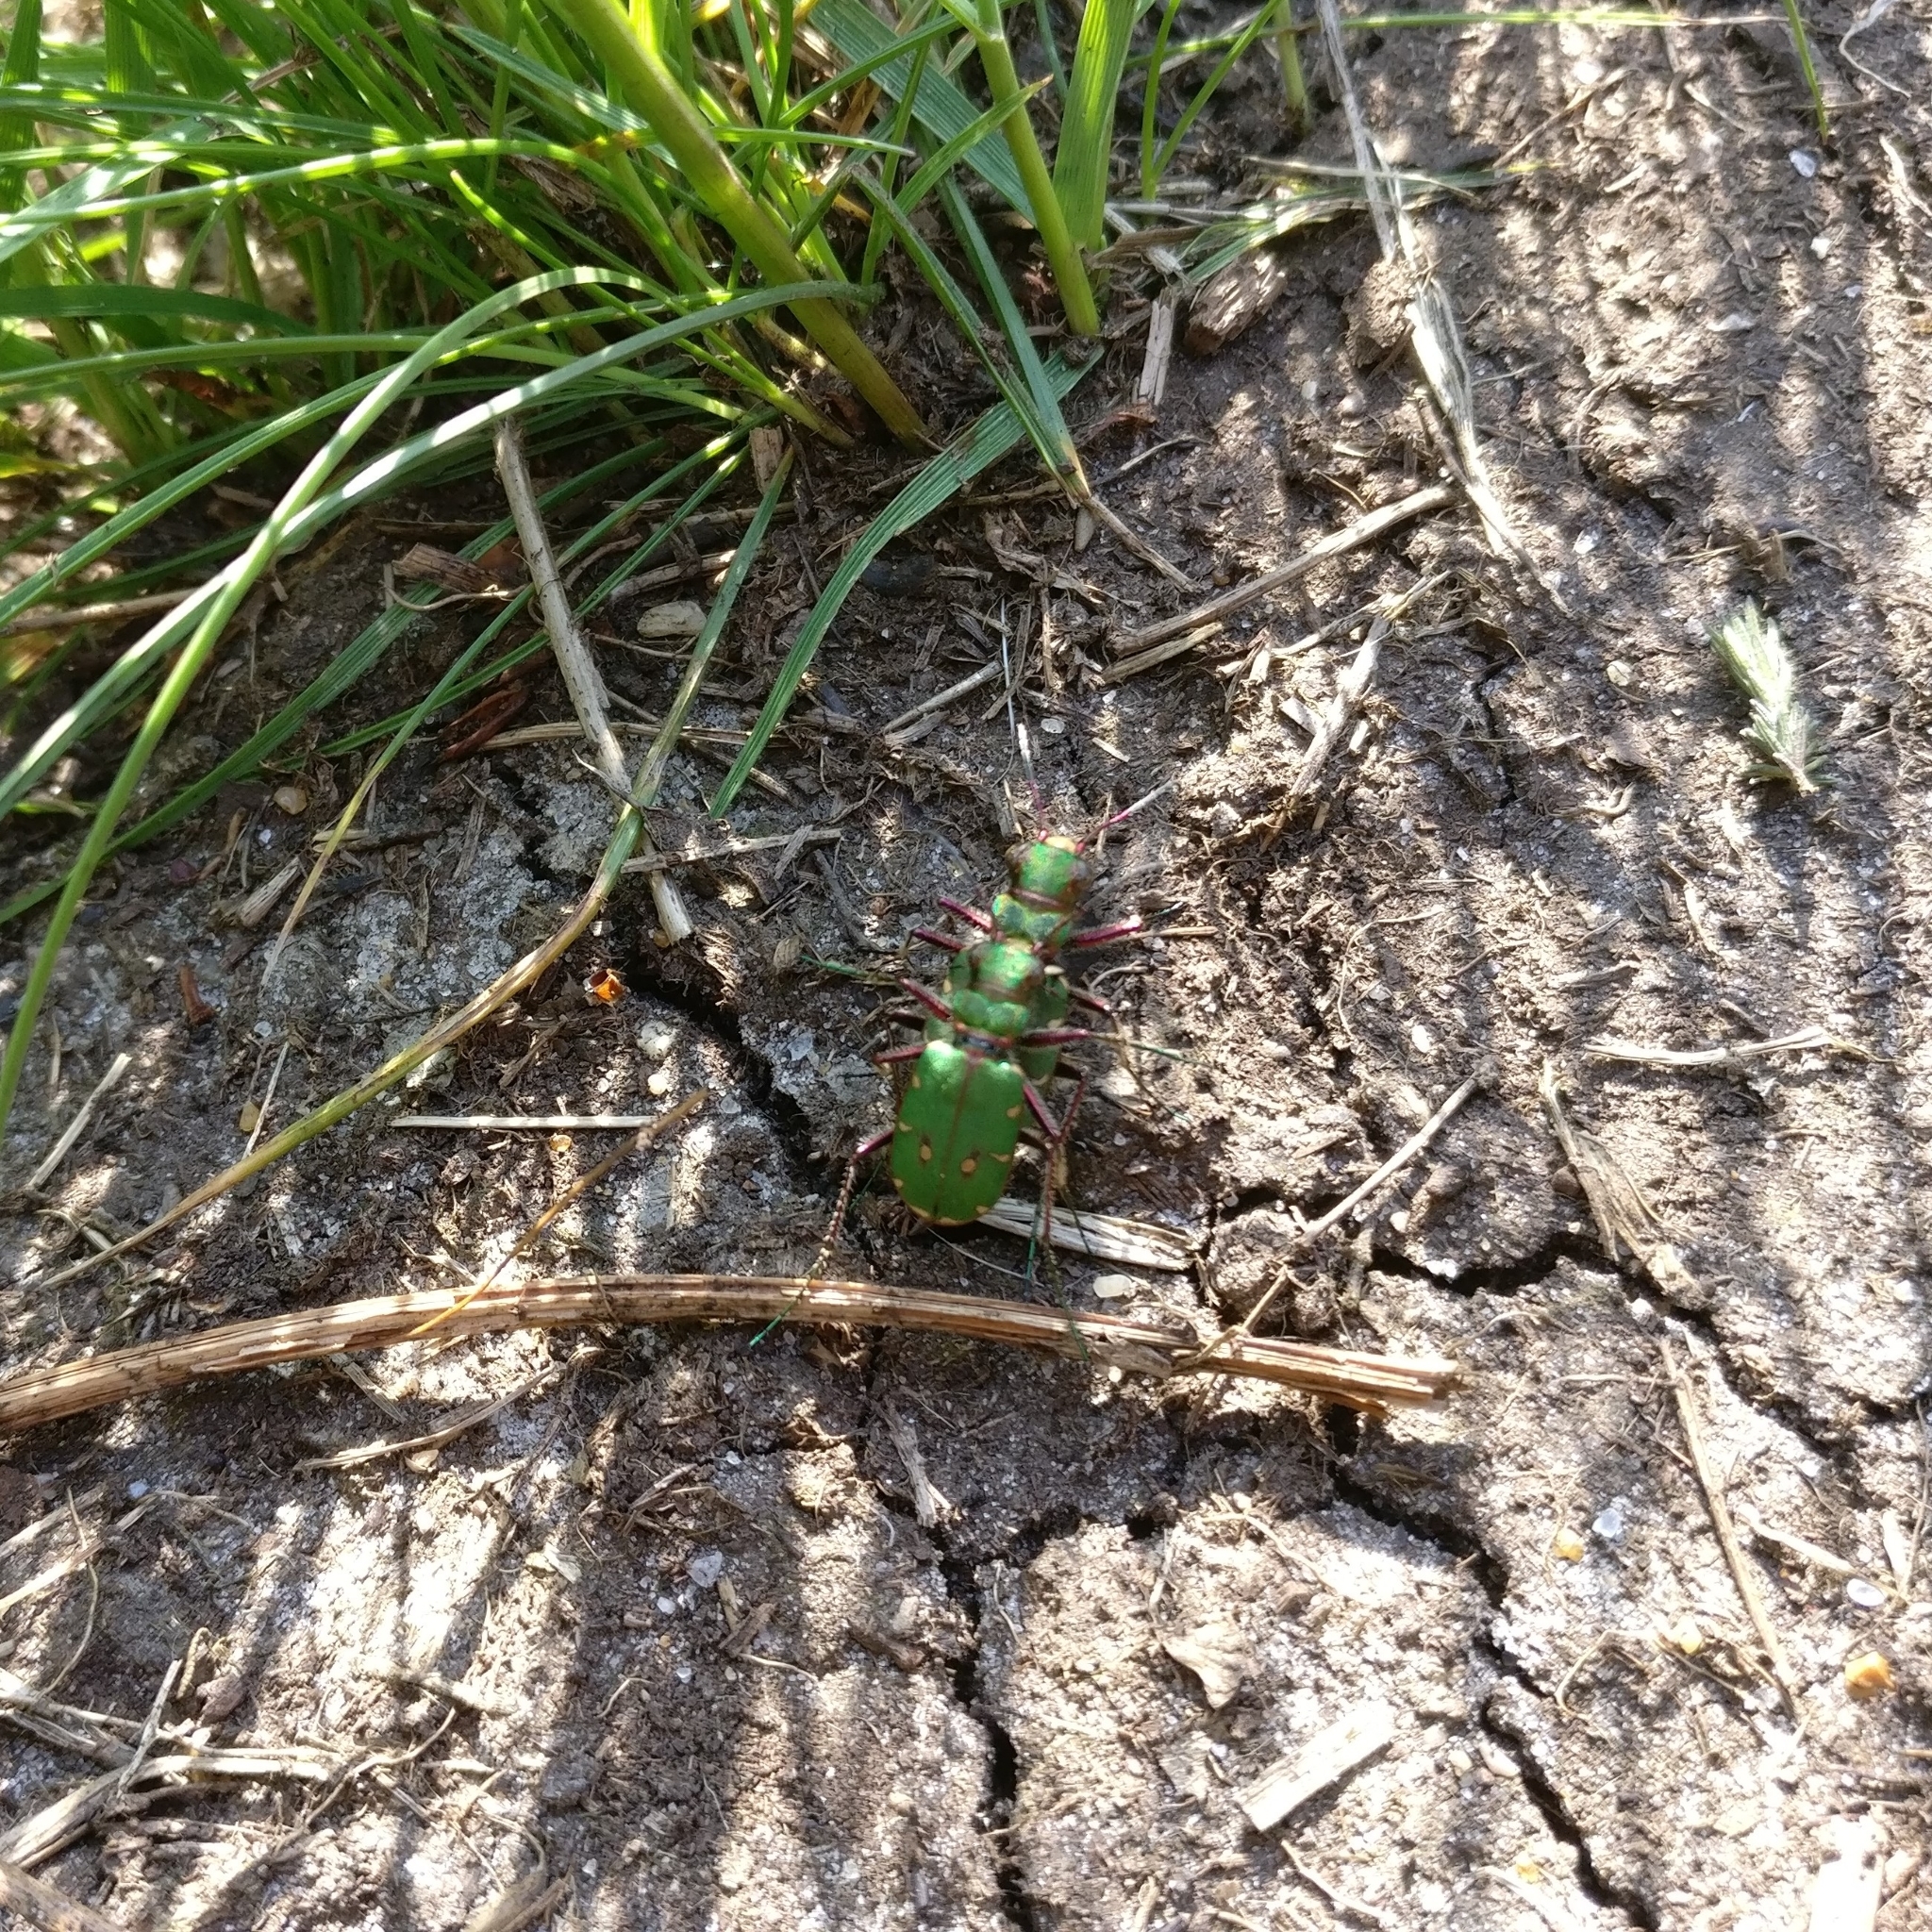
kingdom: Animalia
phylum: Arthropoda
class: Insecta
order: Coleoptera
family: Carabidae
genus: Cicindela
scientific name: Cicindela campestris
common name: Common tiger beetle
